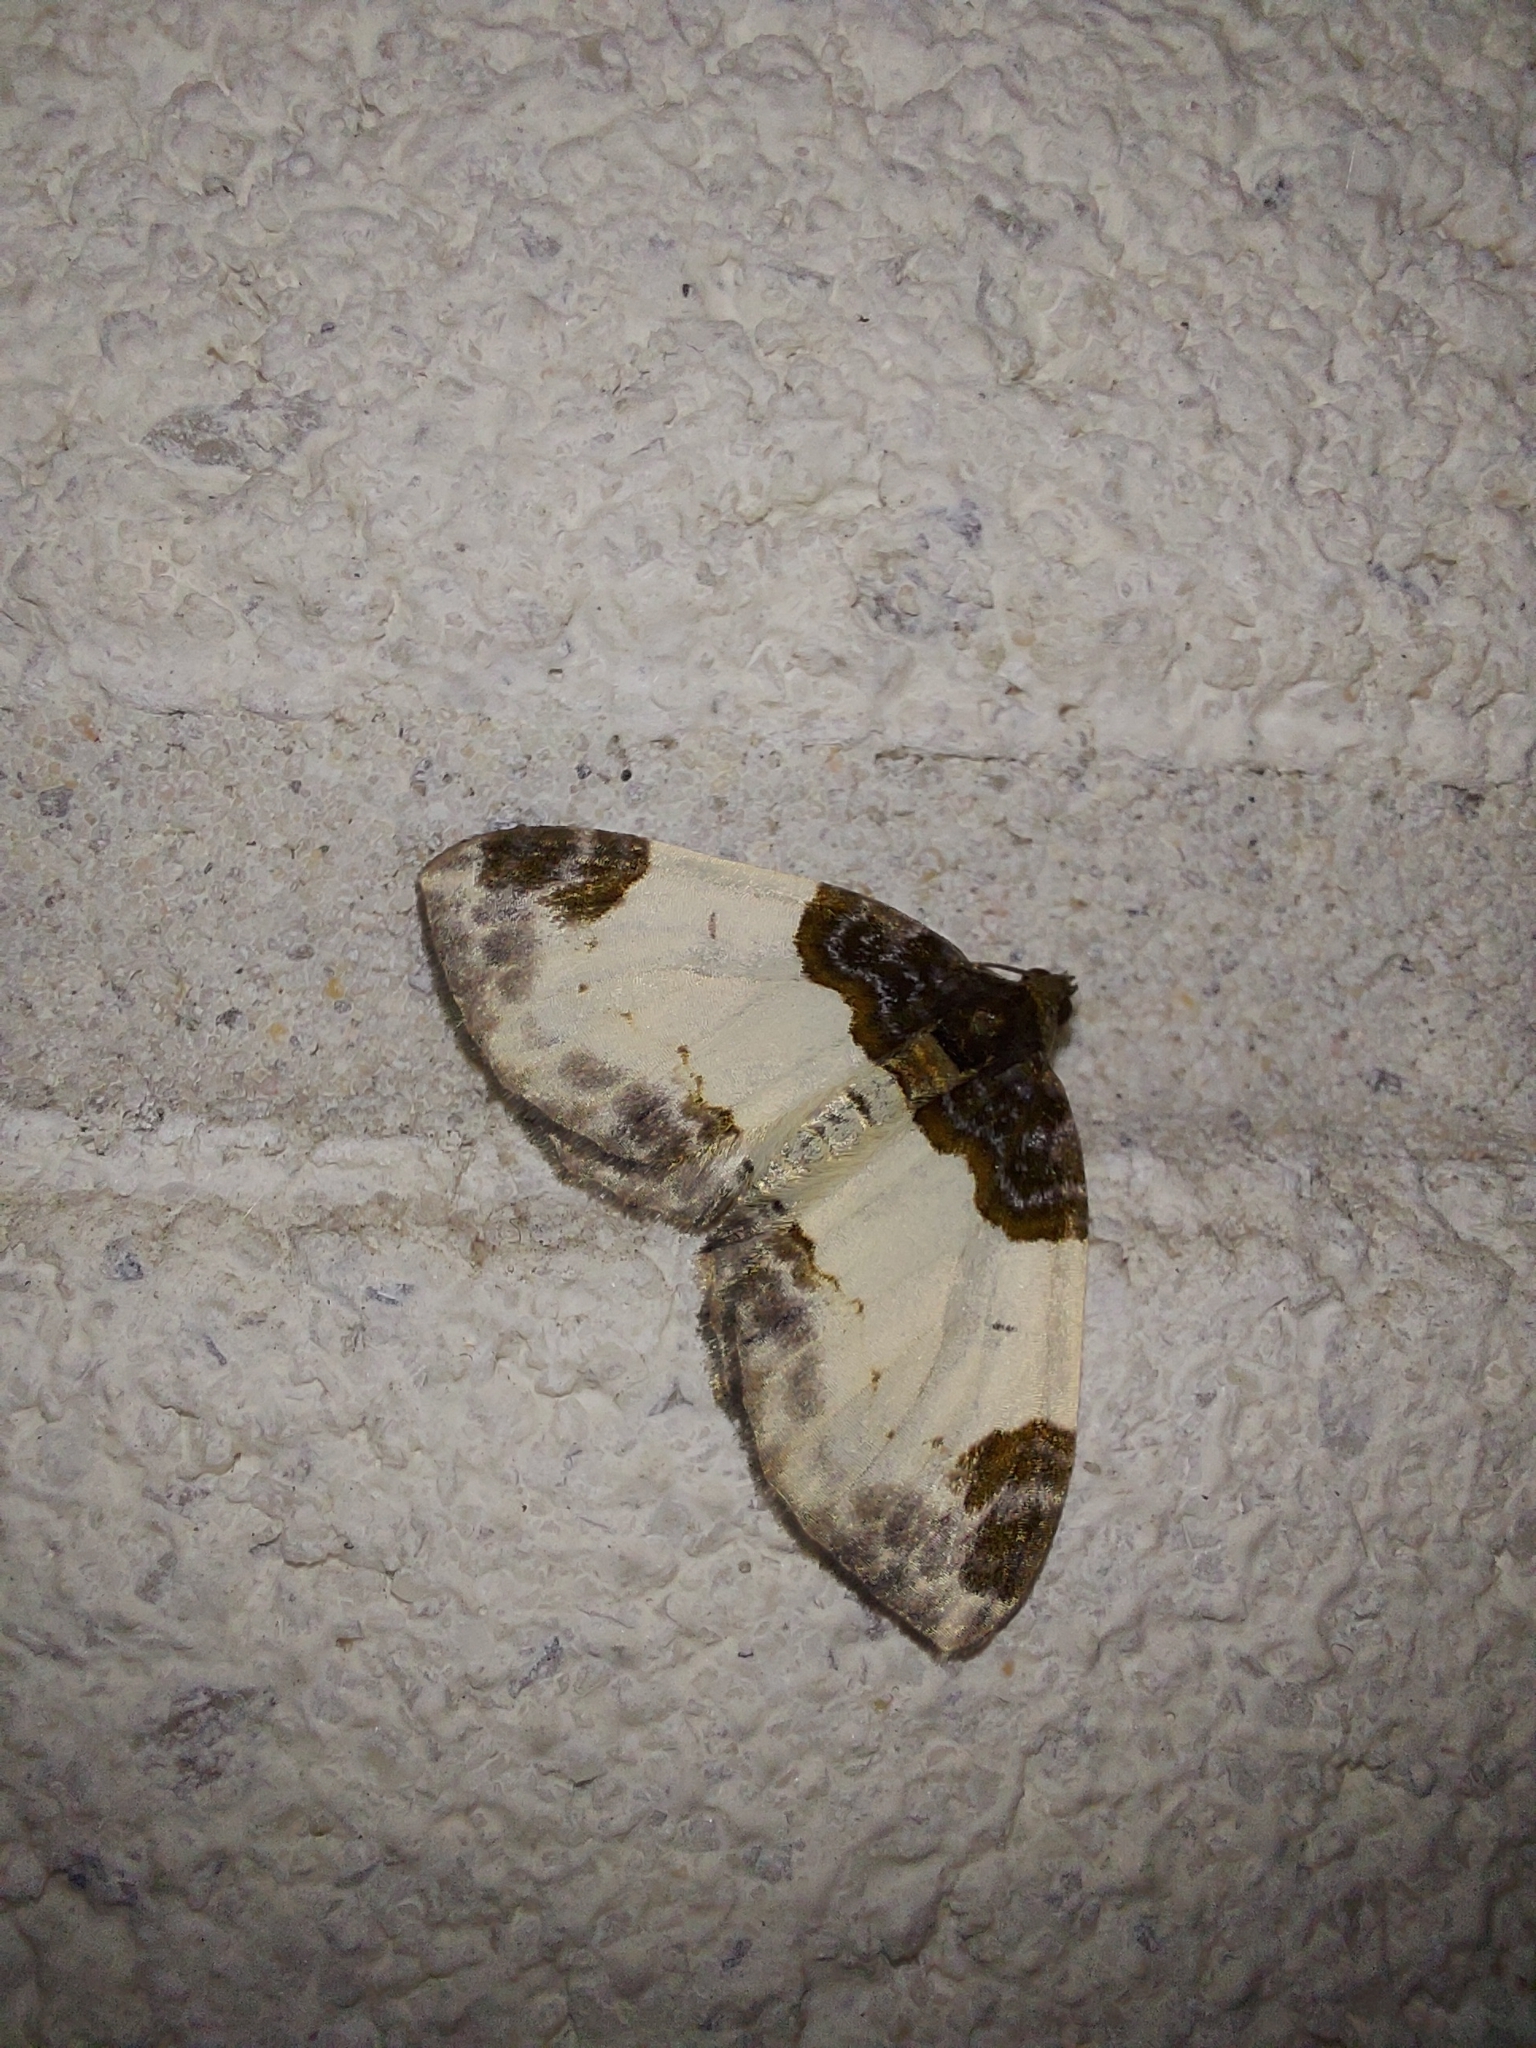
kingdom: Animalia
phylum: Arthropoda
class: Insecta
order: Lepidoptera
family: Geometridae
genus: Mesoleuca
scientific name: Mesoleuca albicillata
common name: Beautiful carpet
